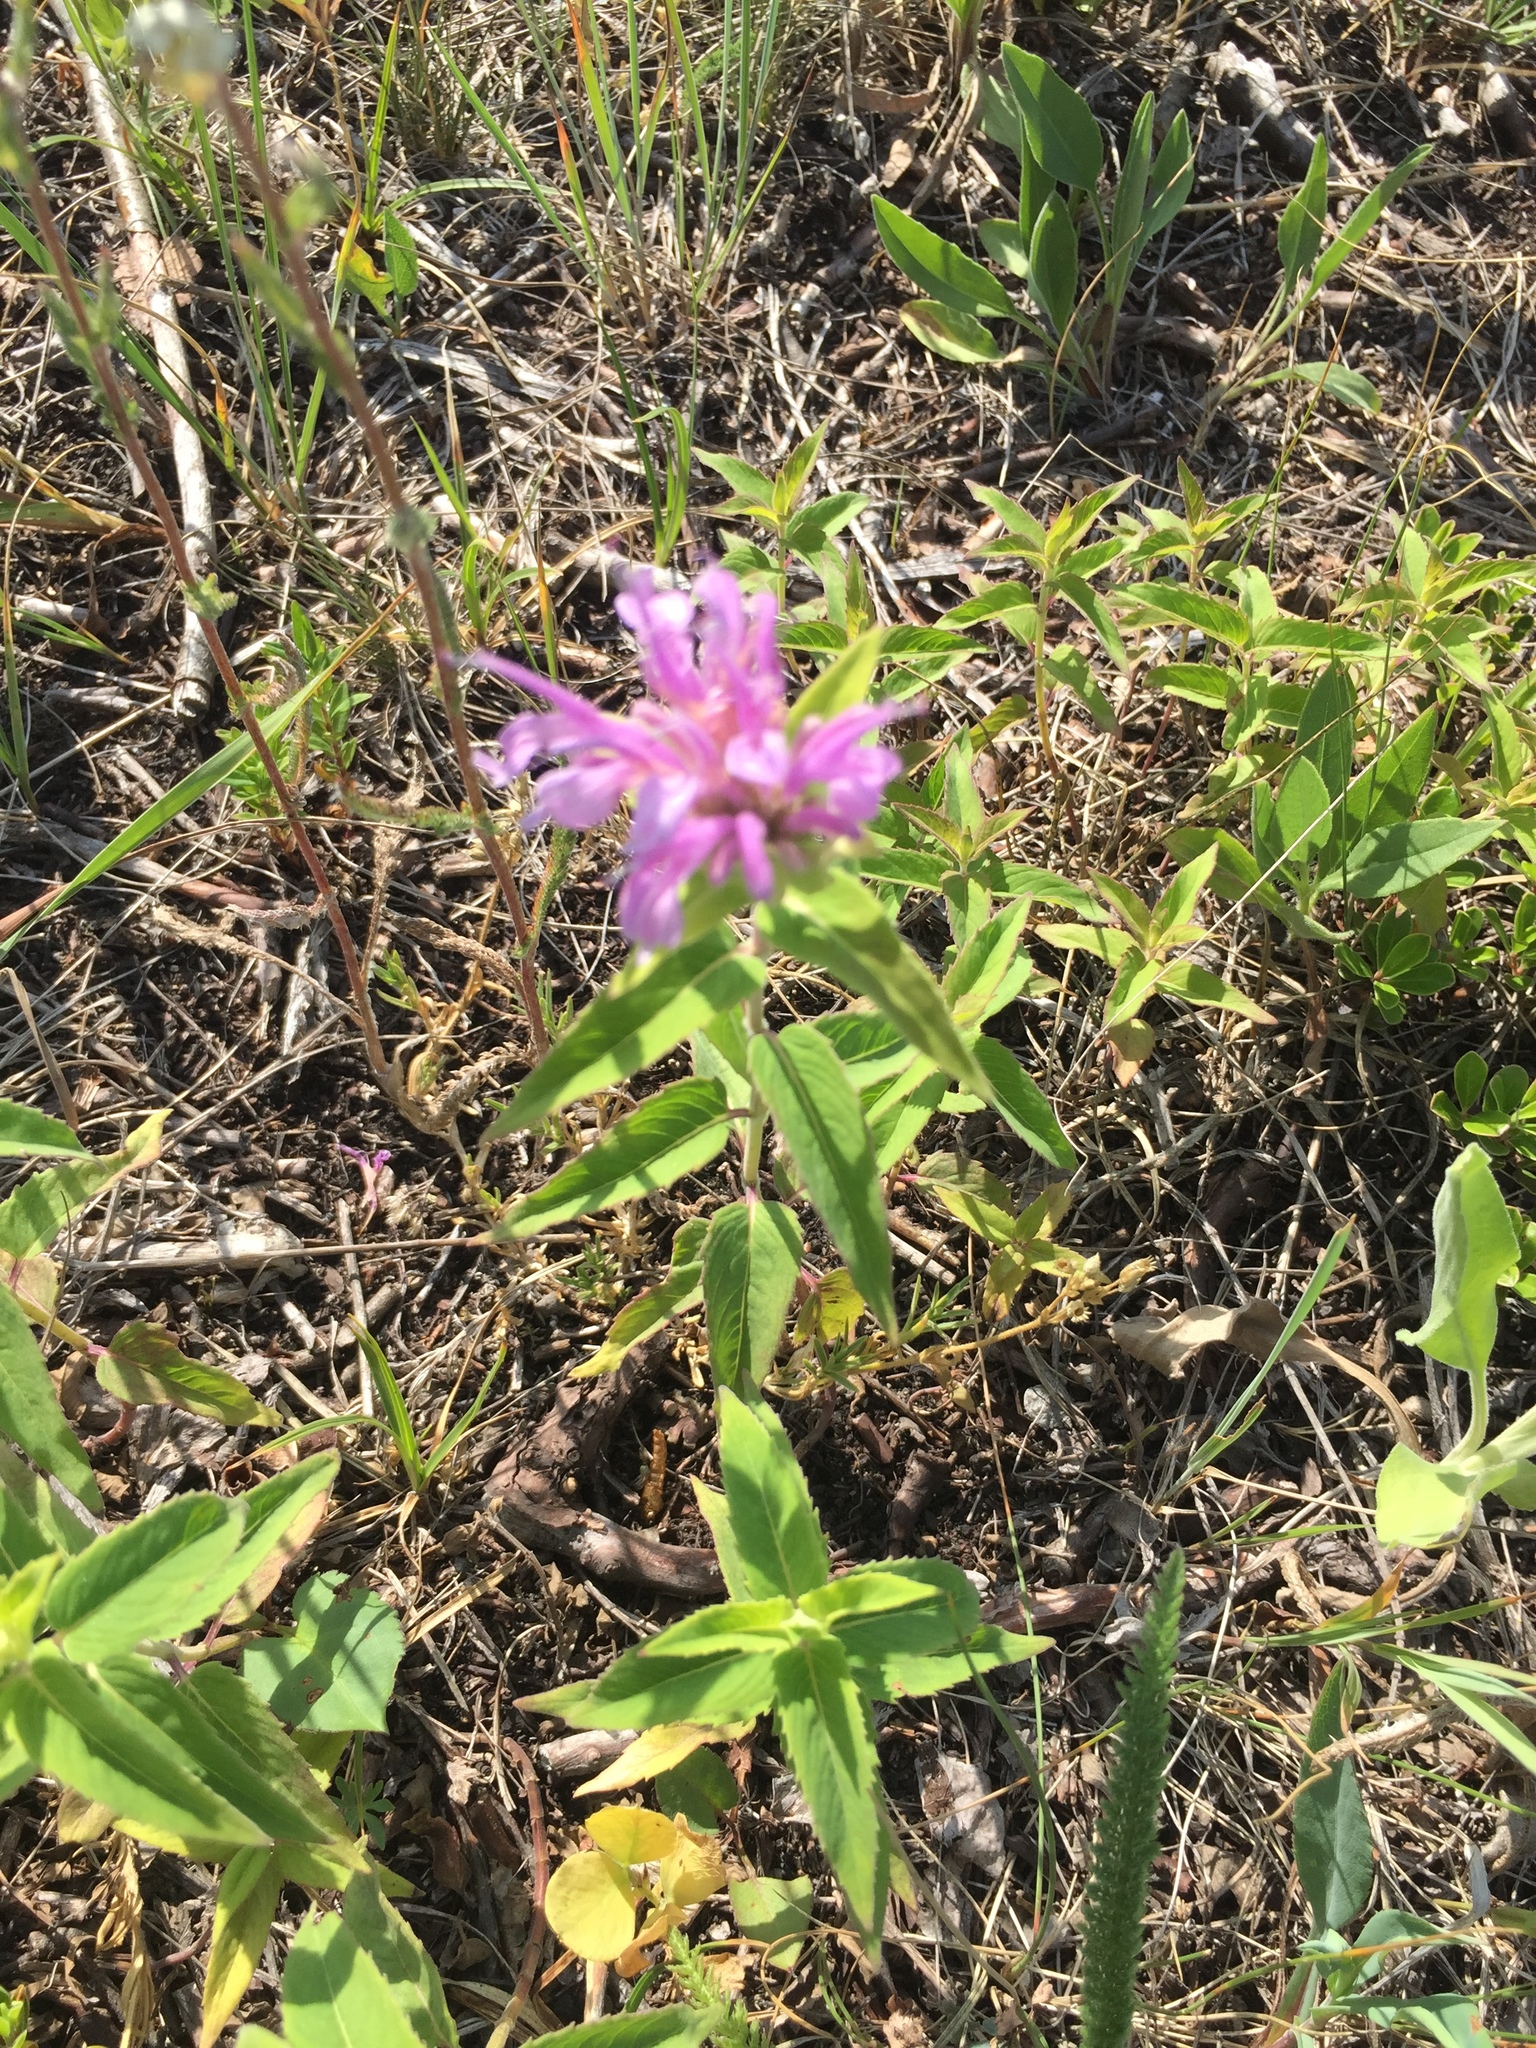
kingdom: Plantae
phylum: Tracheophyta
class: Magnoliopsida
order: Lamiales
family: Lamiaceae
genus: Monarda
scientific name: Monarda fistulosa
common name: Purple beebalm
